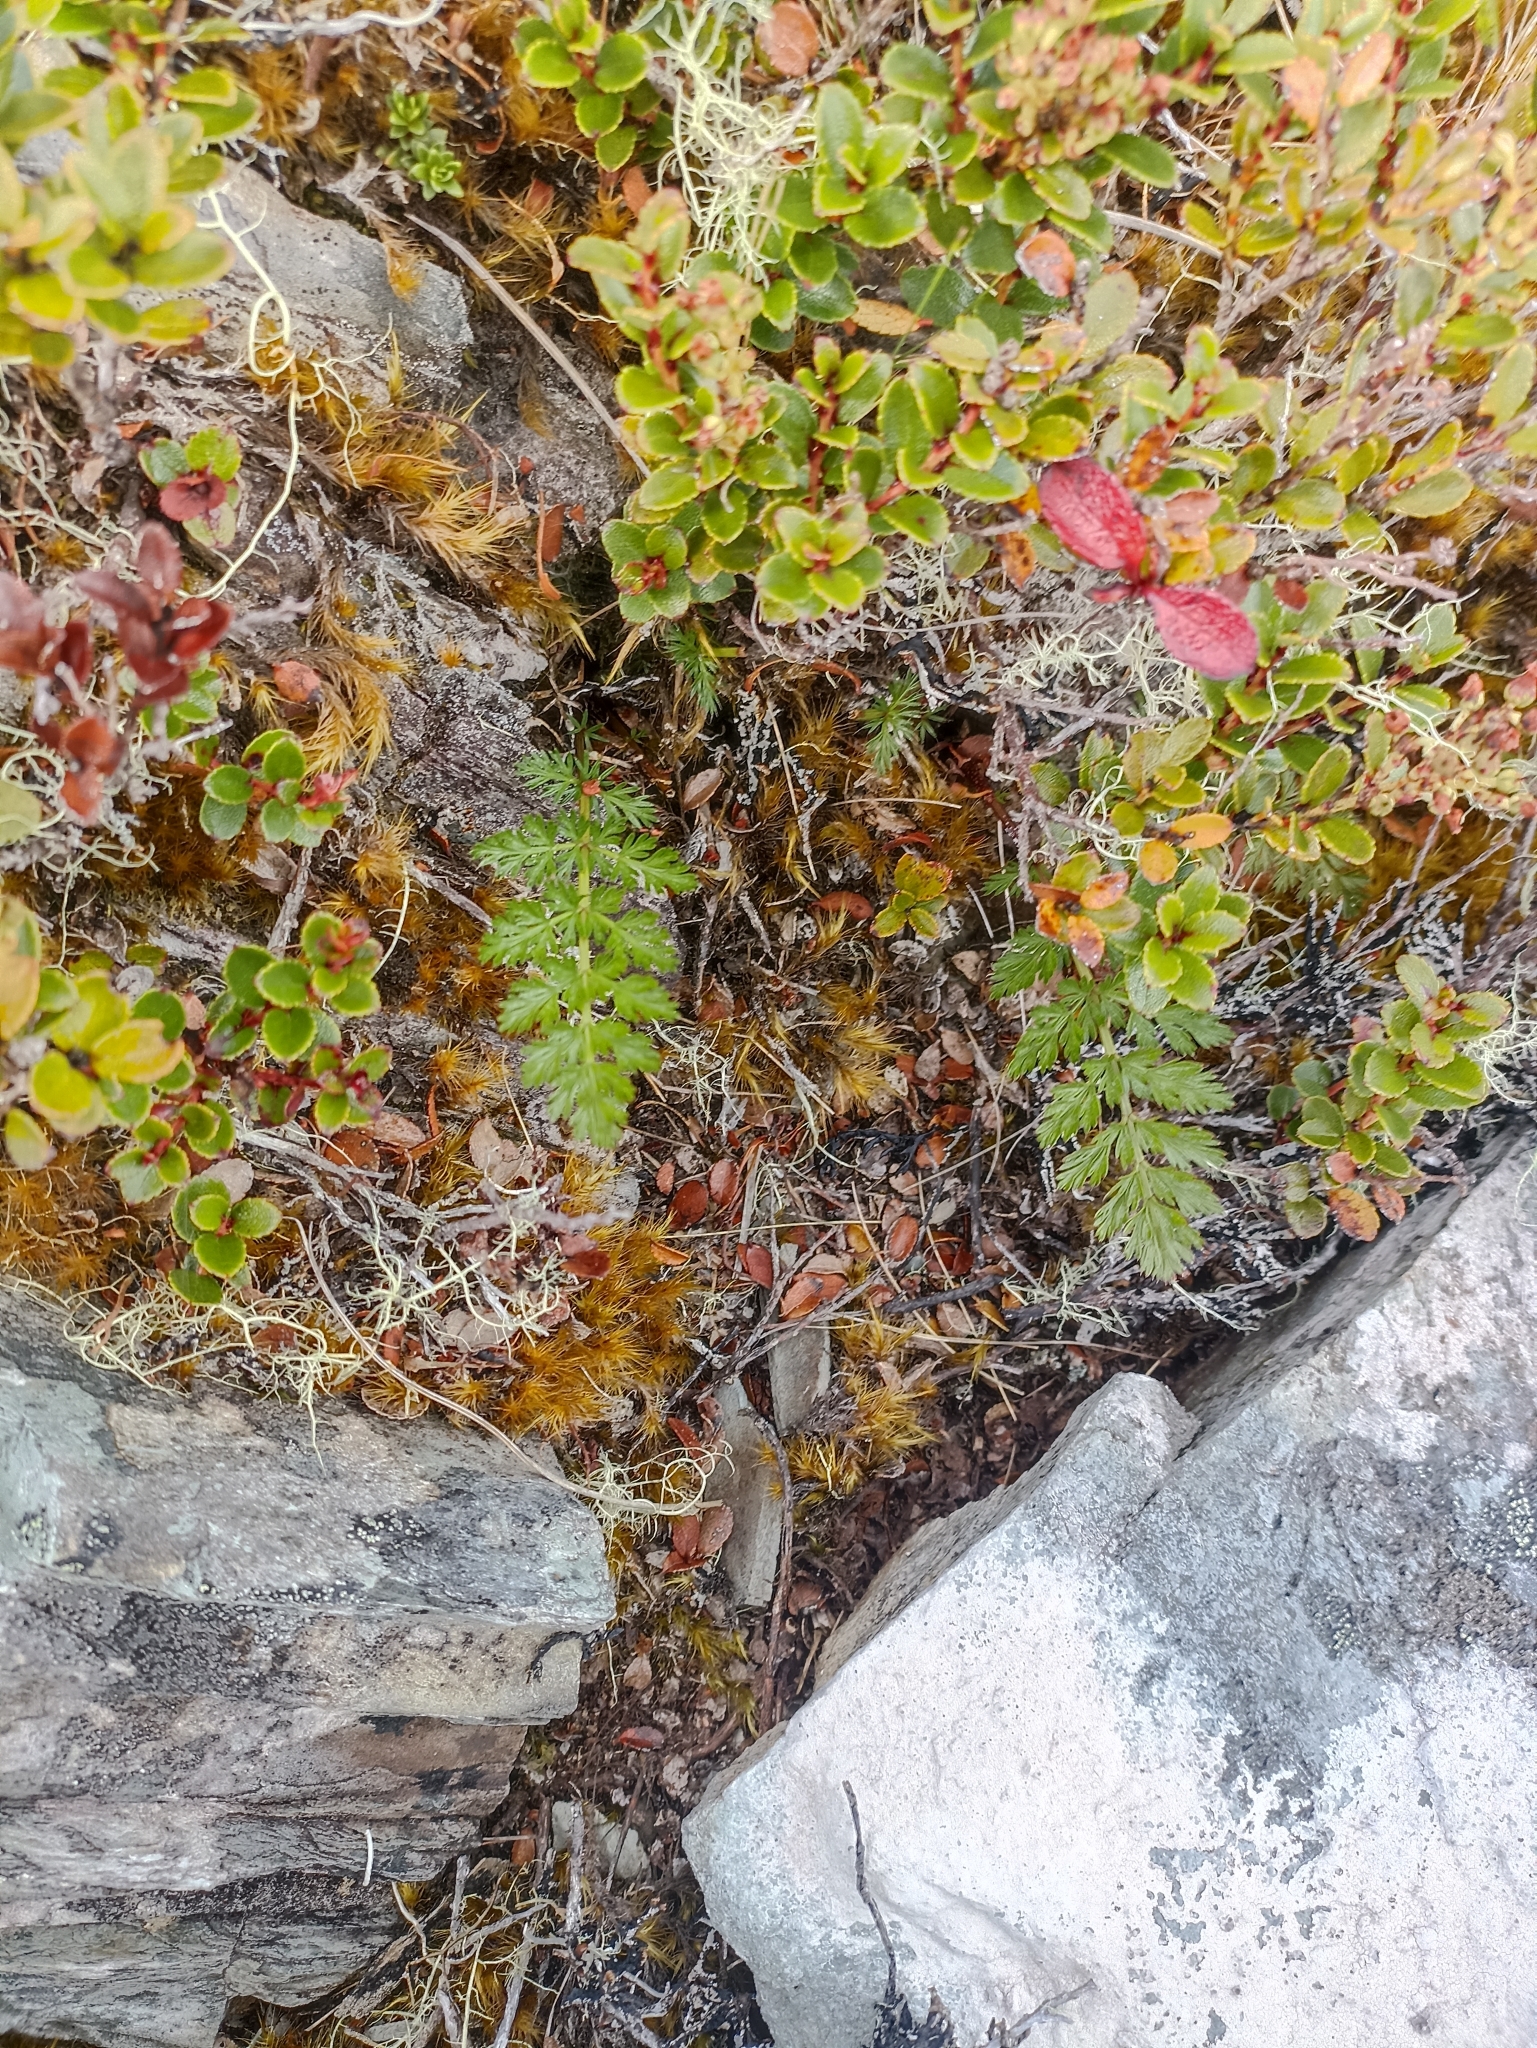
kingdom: Plantae
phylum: Tracheophyta
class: Magnoliopsida
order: Apiales
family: Apiaceae
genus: Anisotome
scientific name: Anisotome haastii
